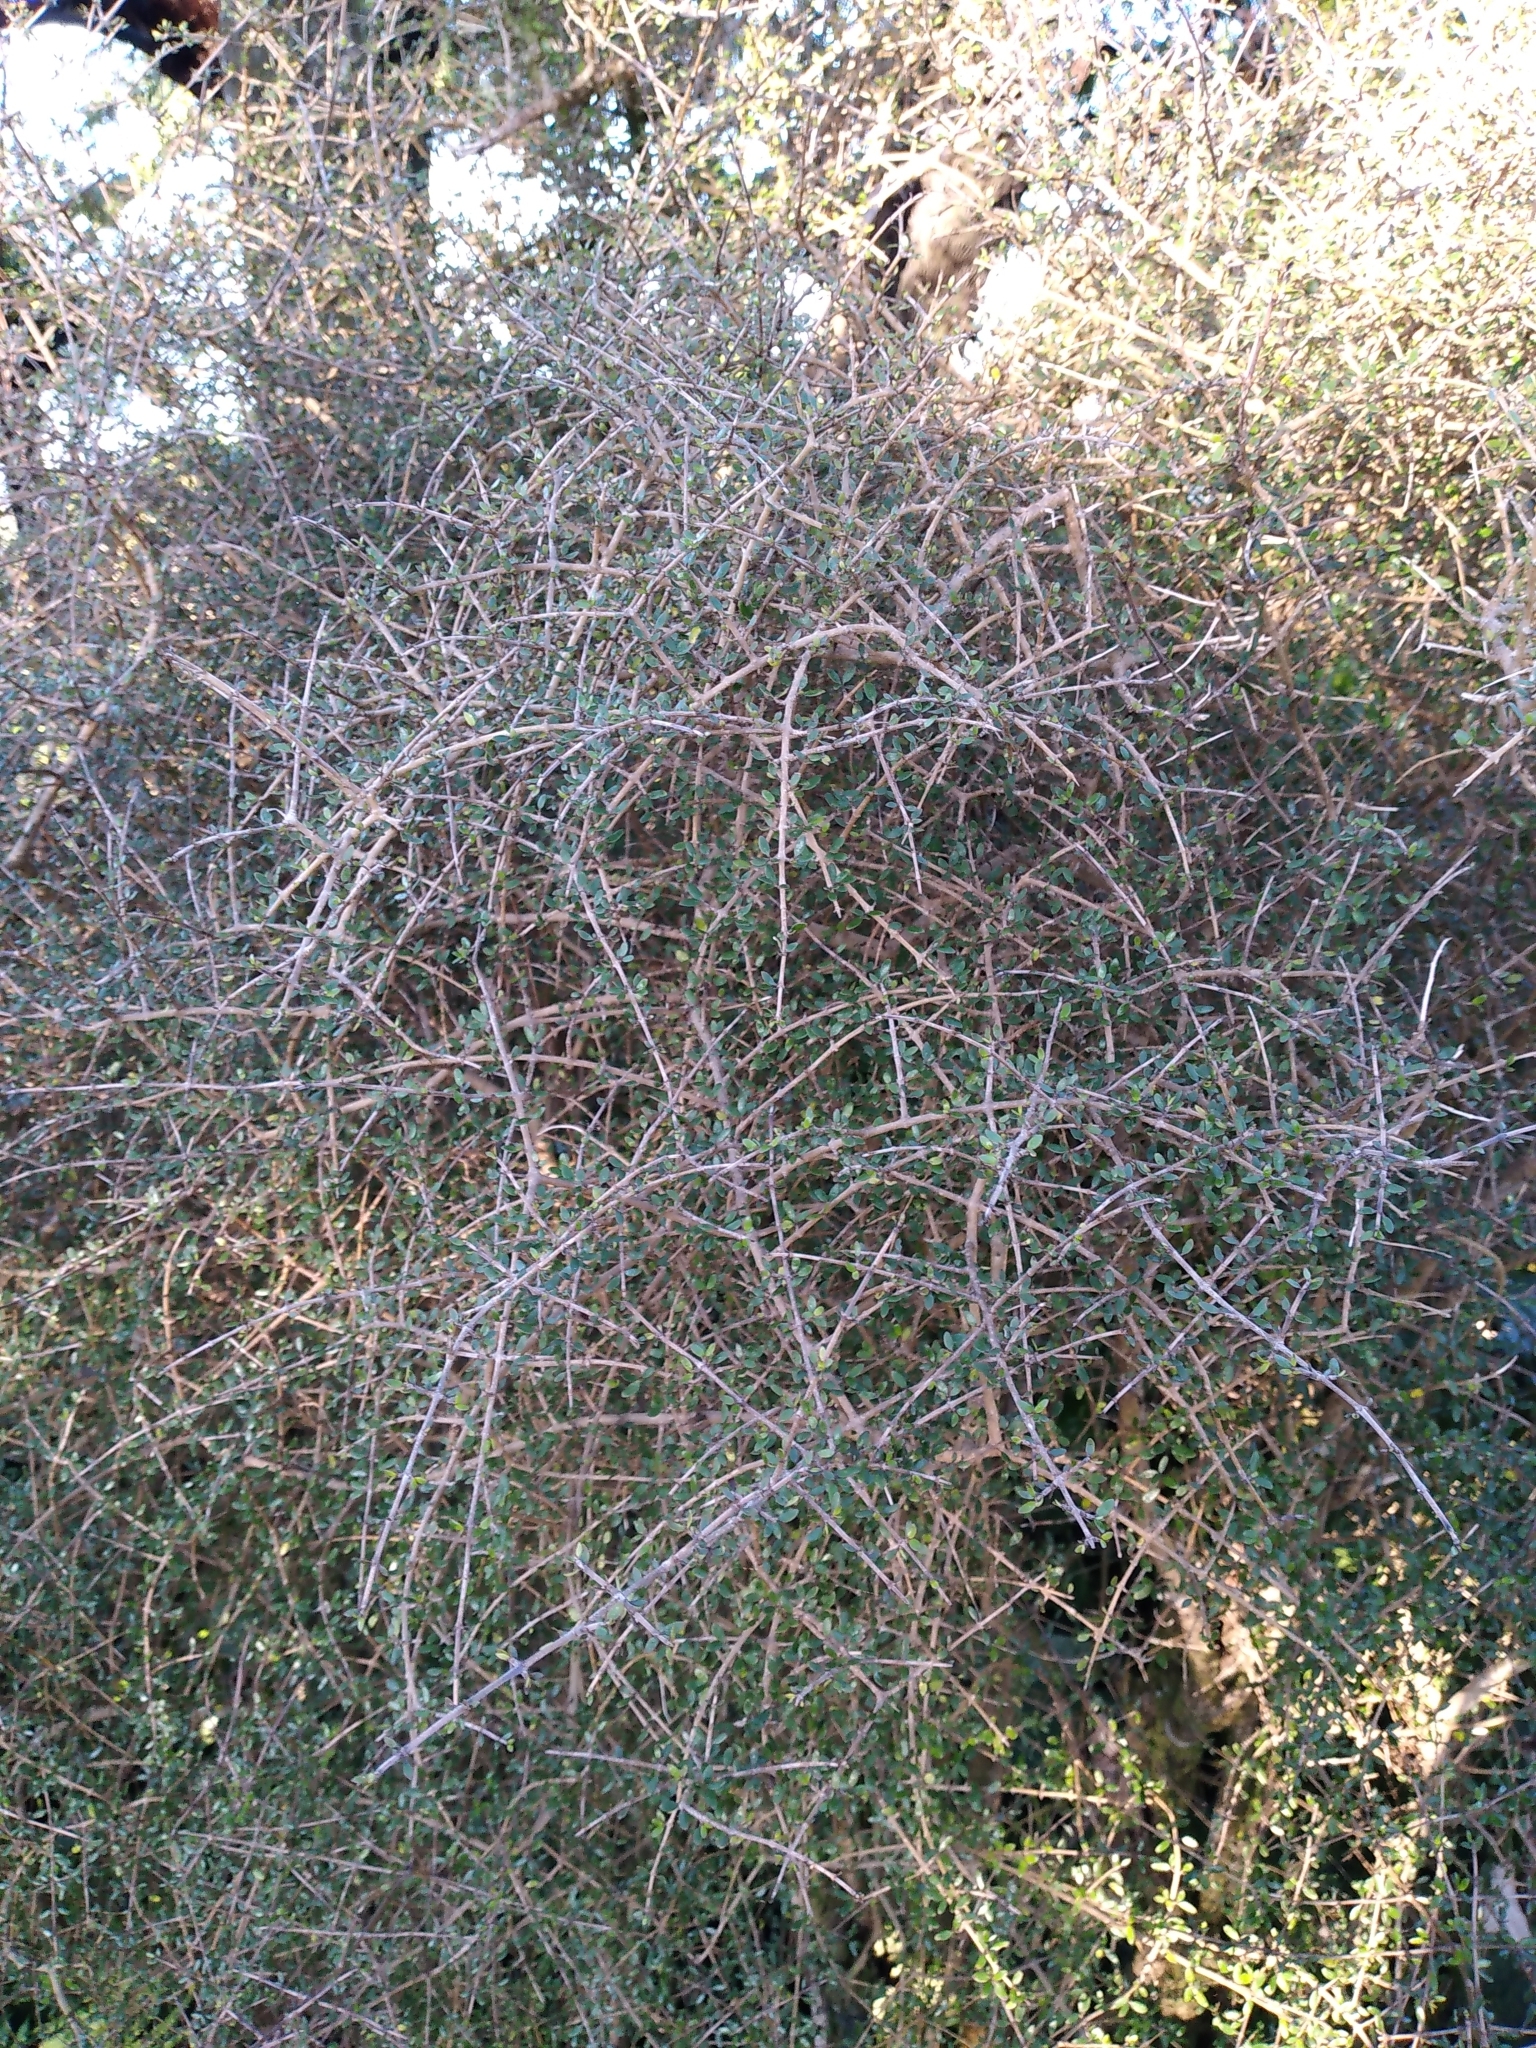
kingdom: Plantae
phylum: Tracheophyta
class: Magnoliopsida
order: Gentianales
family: Rubiaceae
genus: Coprosma
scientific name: Coprosma propinqua
